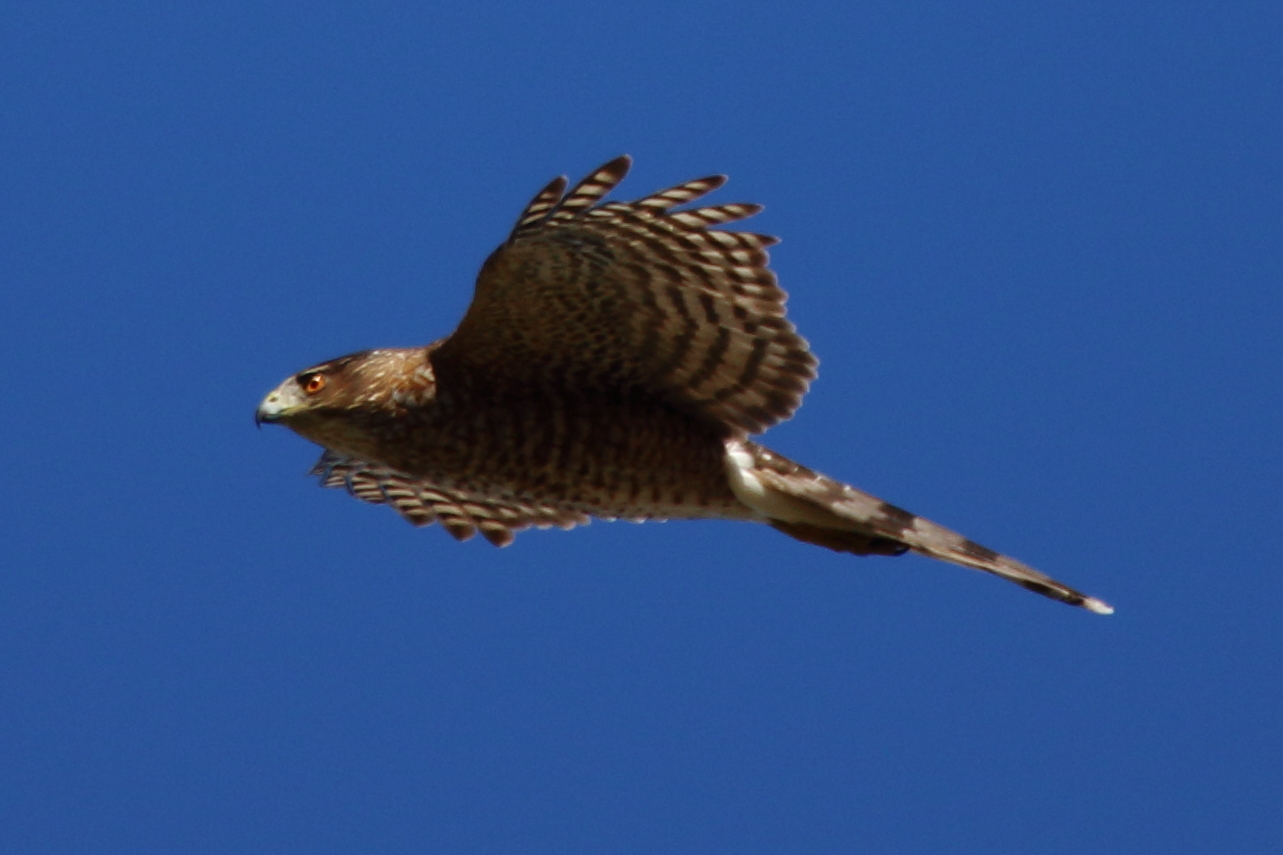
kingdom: Animalia
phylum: Chordata
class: Aves
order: Accipitriformes
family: Accipitridae
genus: Accipiter
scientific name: Accipiter cooperii
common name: Cooper's hawk
